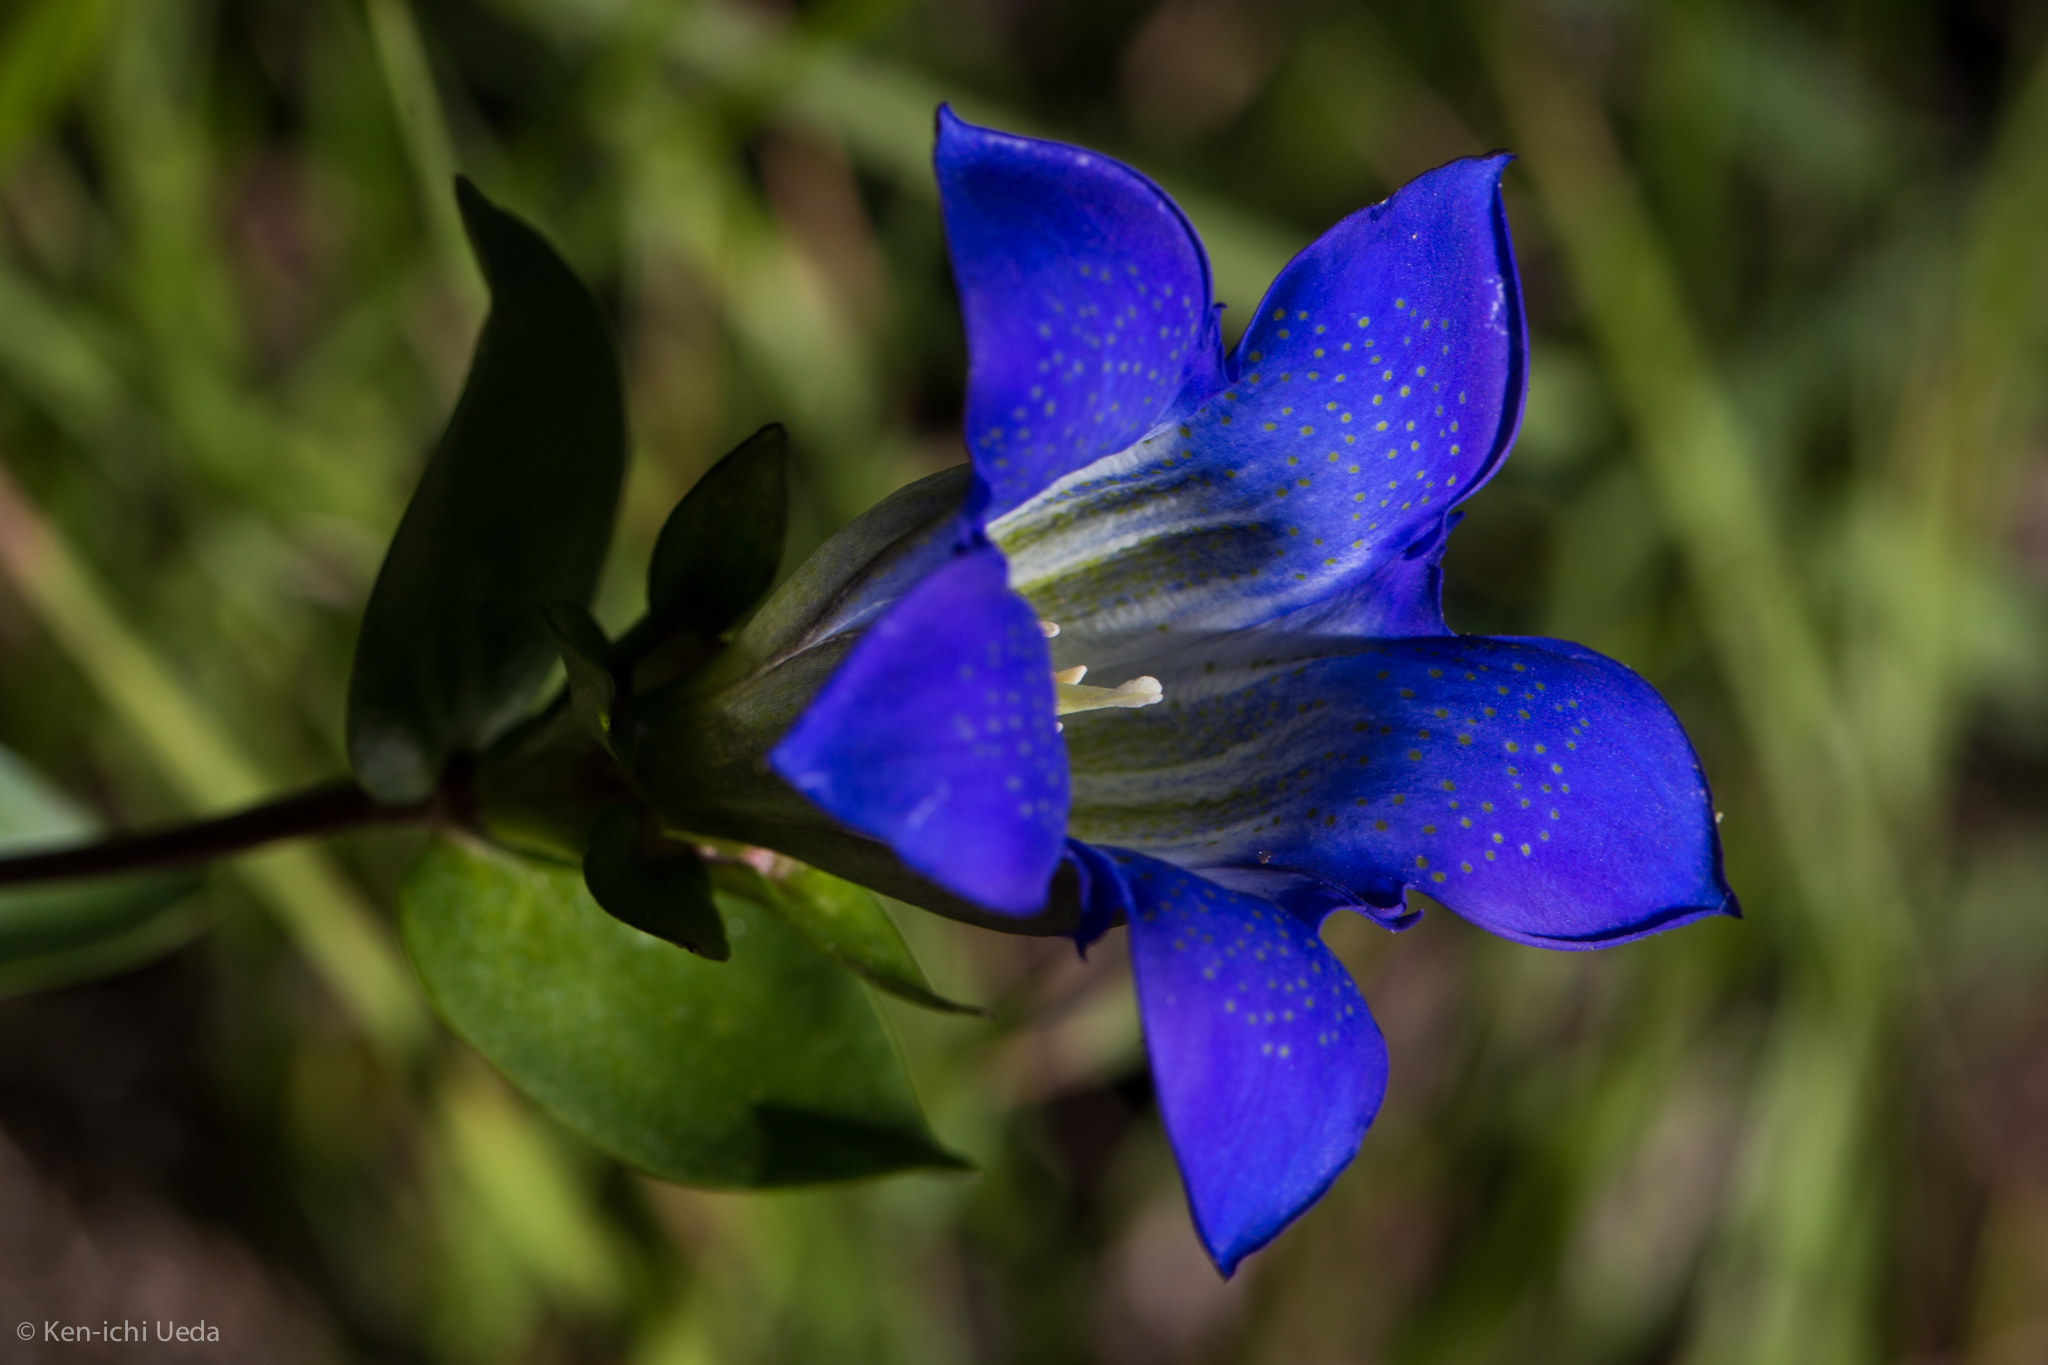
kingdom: Plantae
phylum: Tracheophyta
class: Magnoliopsida
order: Gentianales
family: Gentianaceae
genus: Gentiana
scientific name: Gentiana calycosa
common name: Rainier pleated gentian
